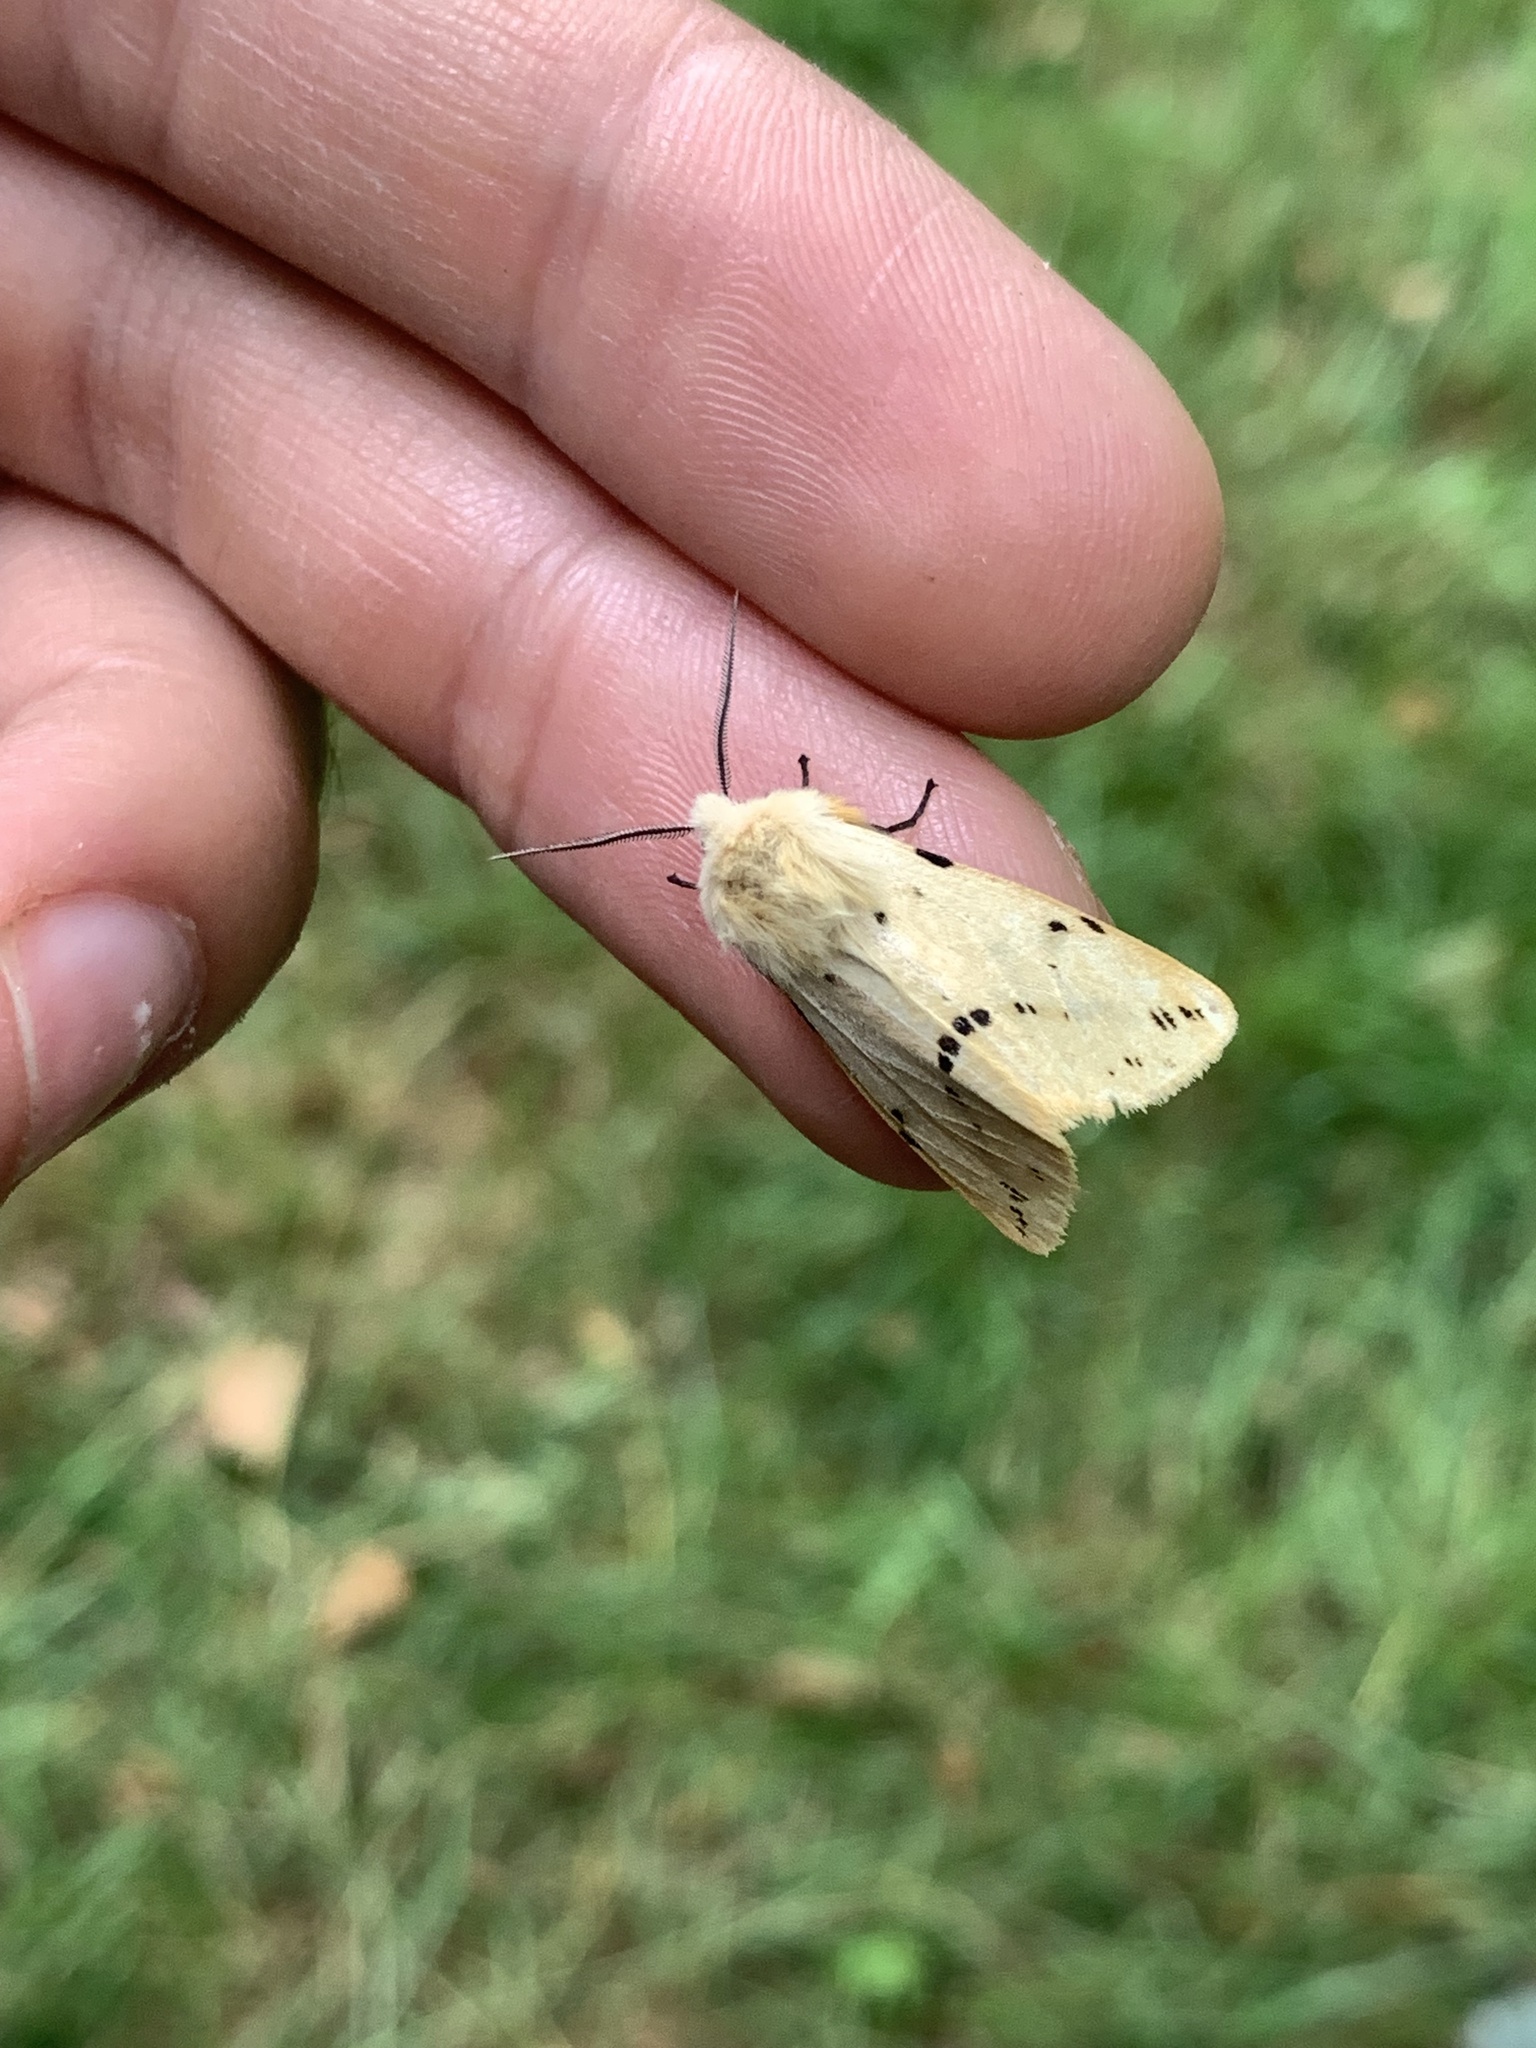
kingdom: Animalia
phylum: Arthropoda
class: Insecta
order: Lepidoptera
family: Erebidae
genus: Spilarctia
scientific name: Spilarctia lutea
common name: Buff ermine
